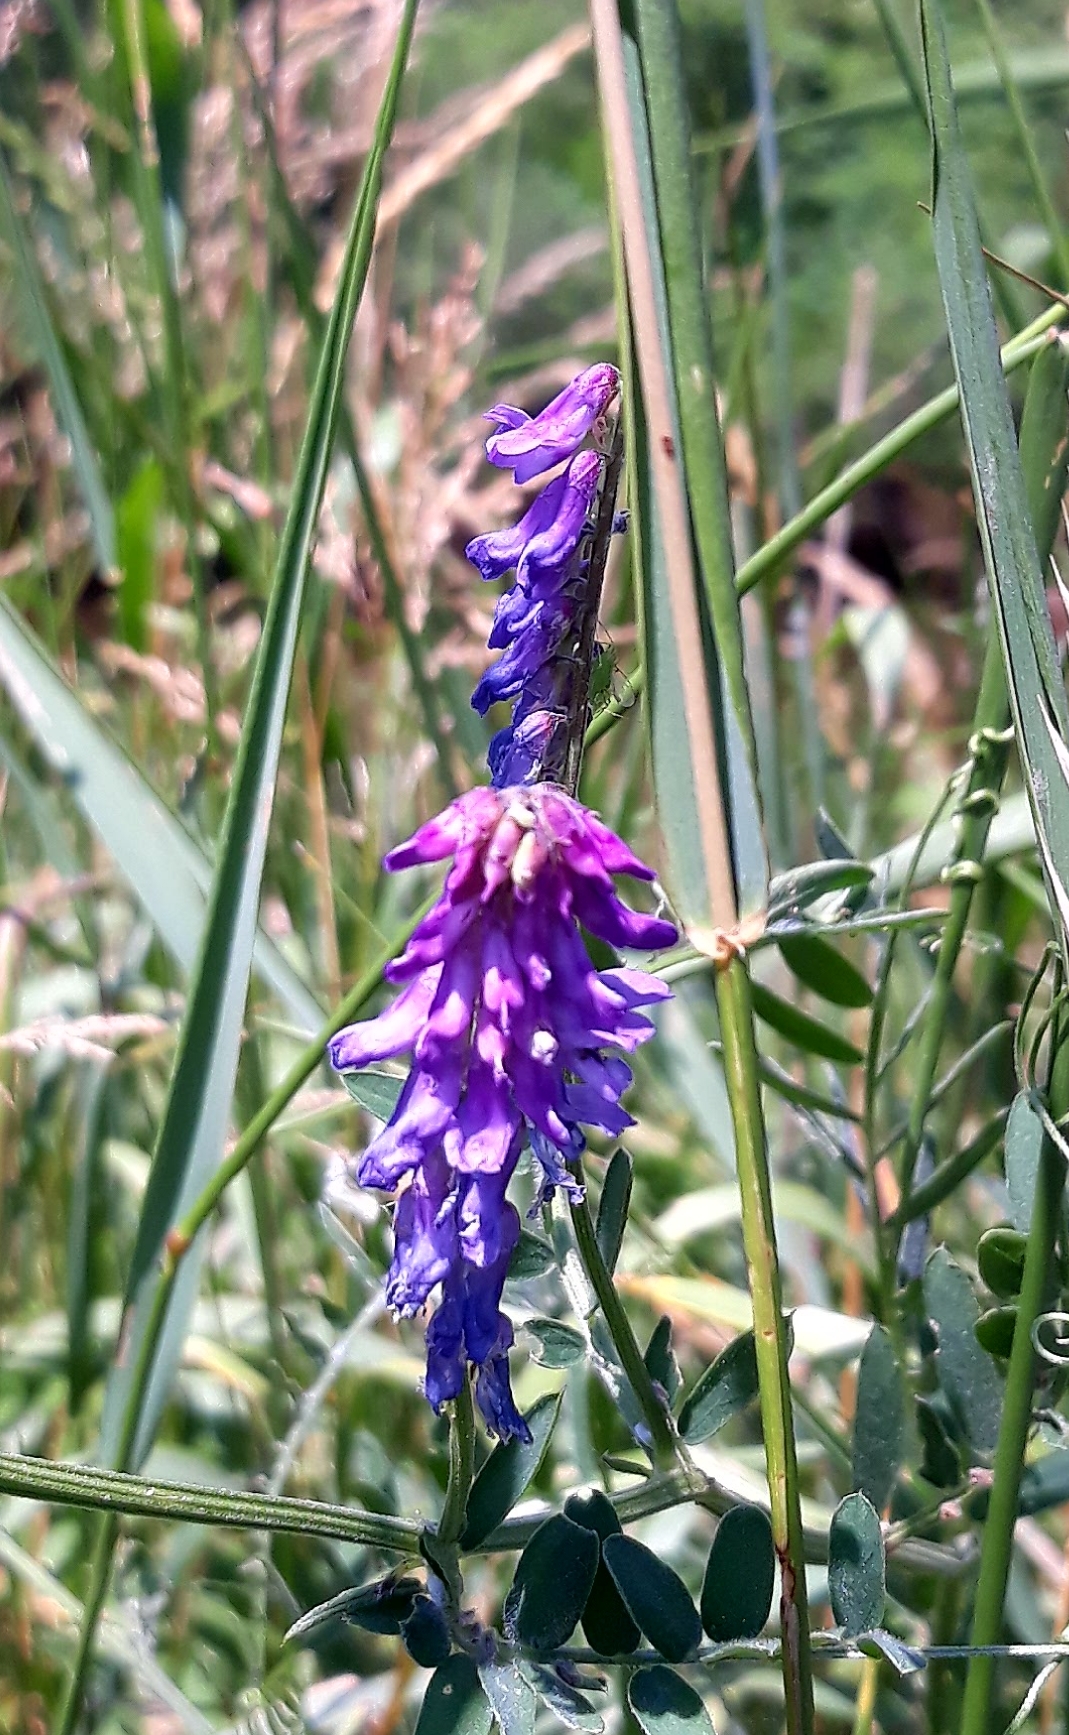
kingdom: Plantae
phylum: Tracheophyta
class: Magnoliopsida
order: Fabales
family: Fabaceae
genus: Vicia
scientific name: Vicia cracca
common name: Bird vetch
